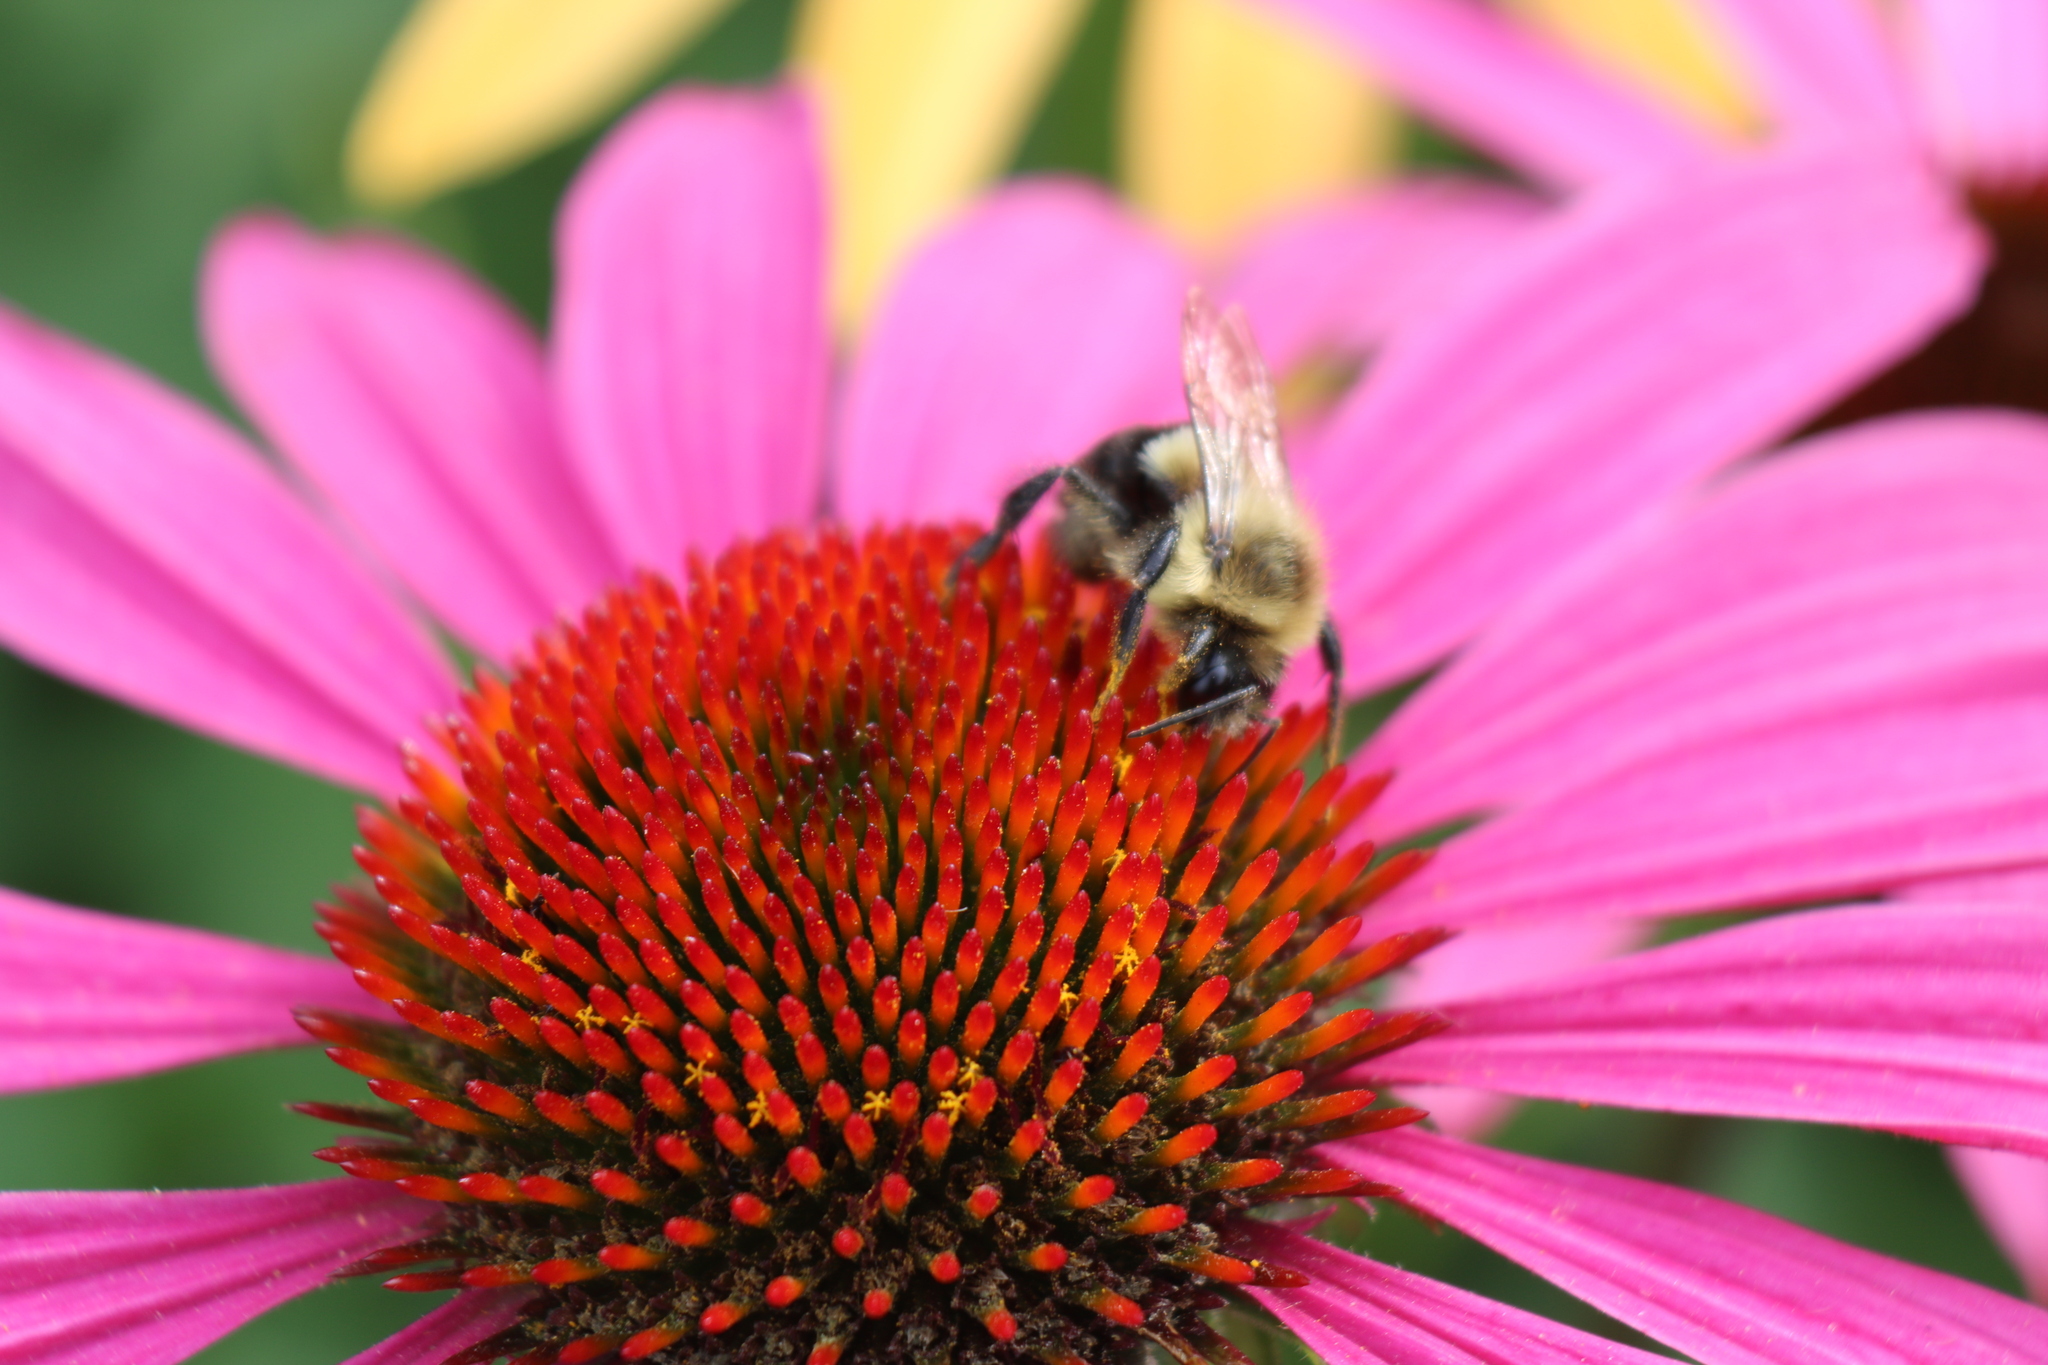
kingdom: Animalia
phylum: Arthropoda
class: Insecta
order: Hymenoptera
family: Apidae
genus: Bombus
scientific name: Bombus impatiens
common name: Common eastern bumble bee
